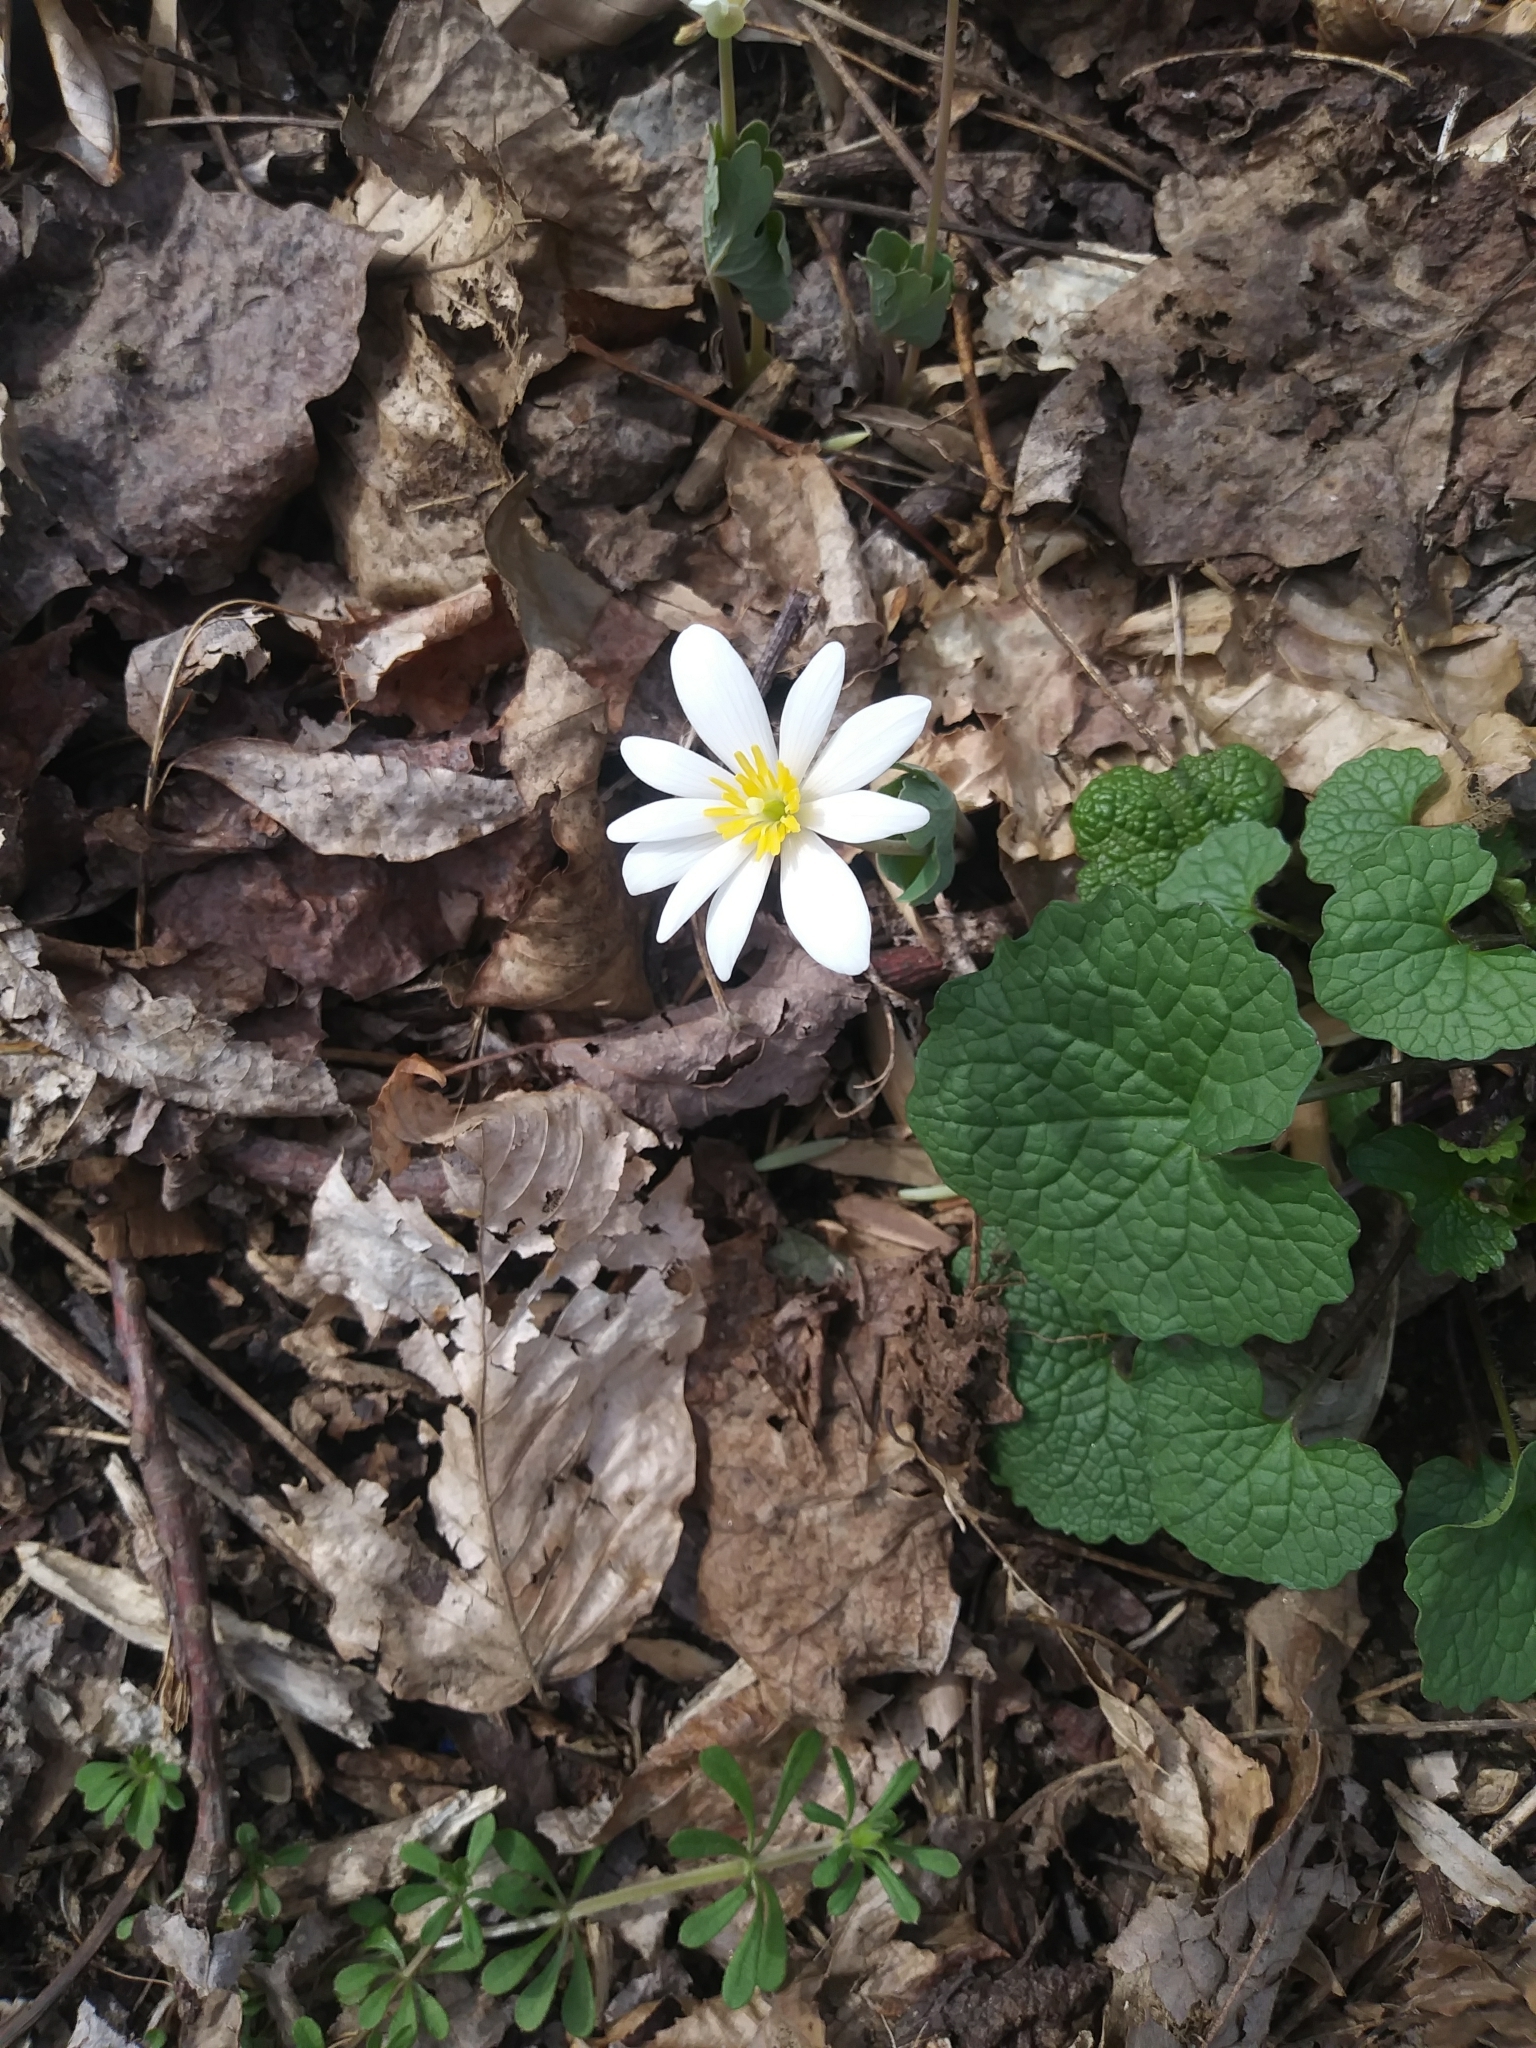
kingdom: Plantae
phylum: Tracheophyta
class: Magnoliopsida
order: Ranunculales
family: Papaveraceae
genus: Sanguinaria
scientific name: Sanguinaria canadensis
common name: Bloodroot
